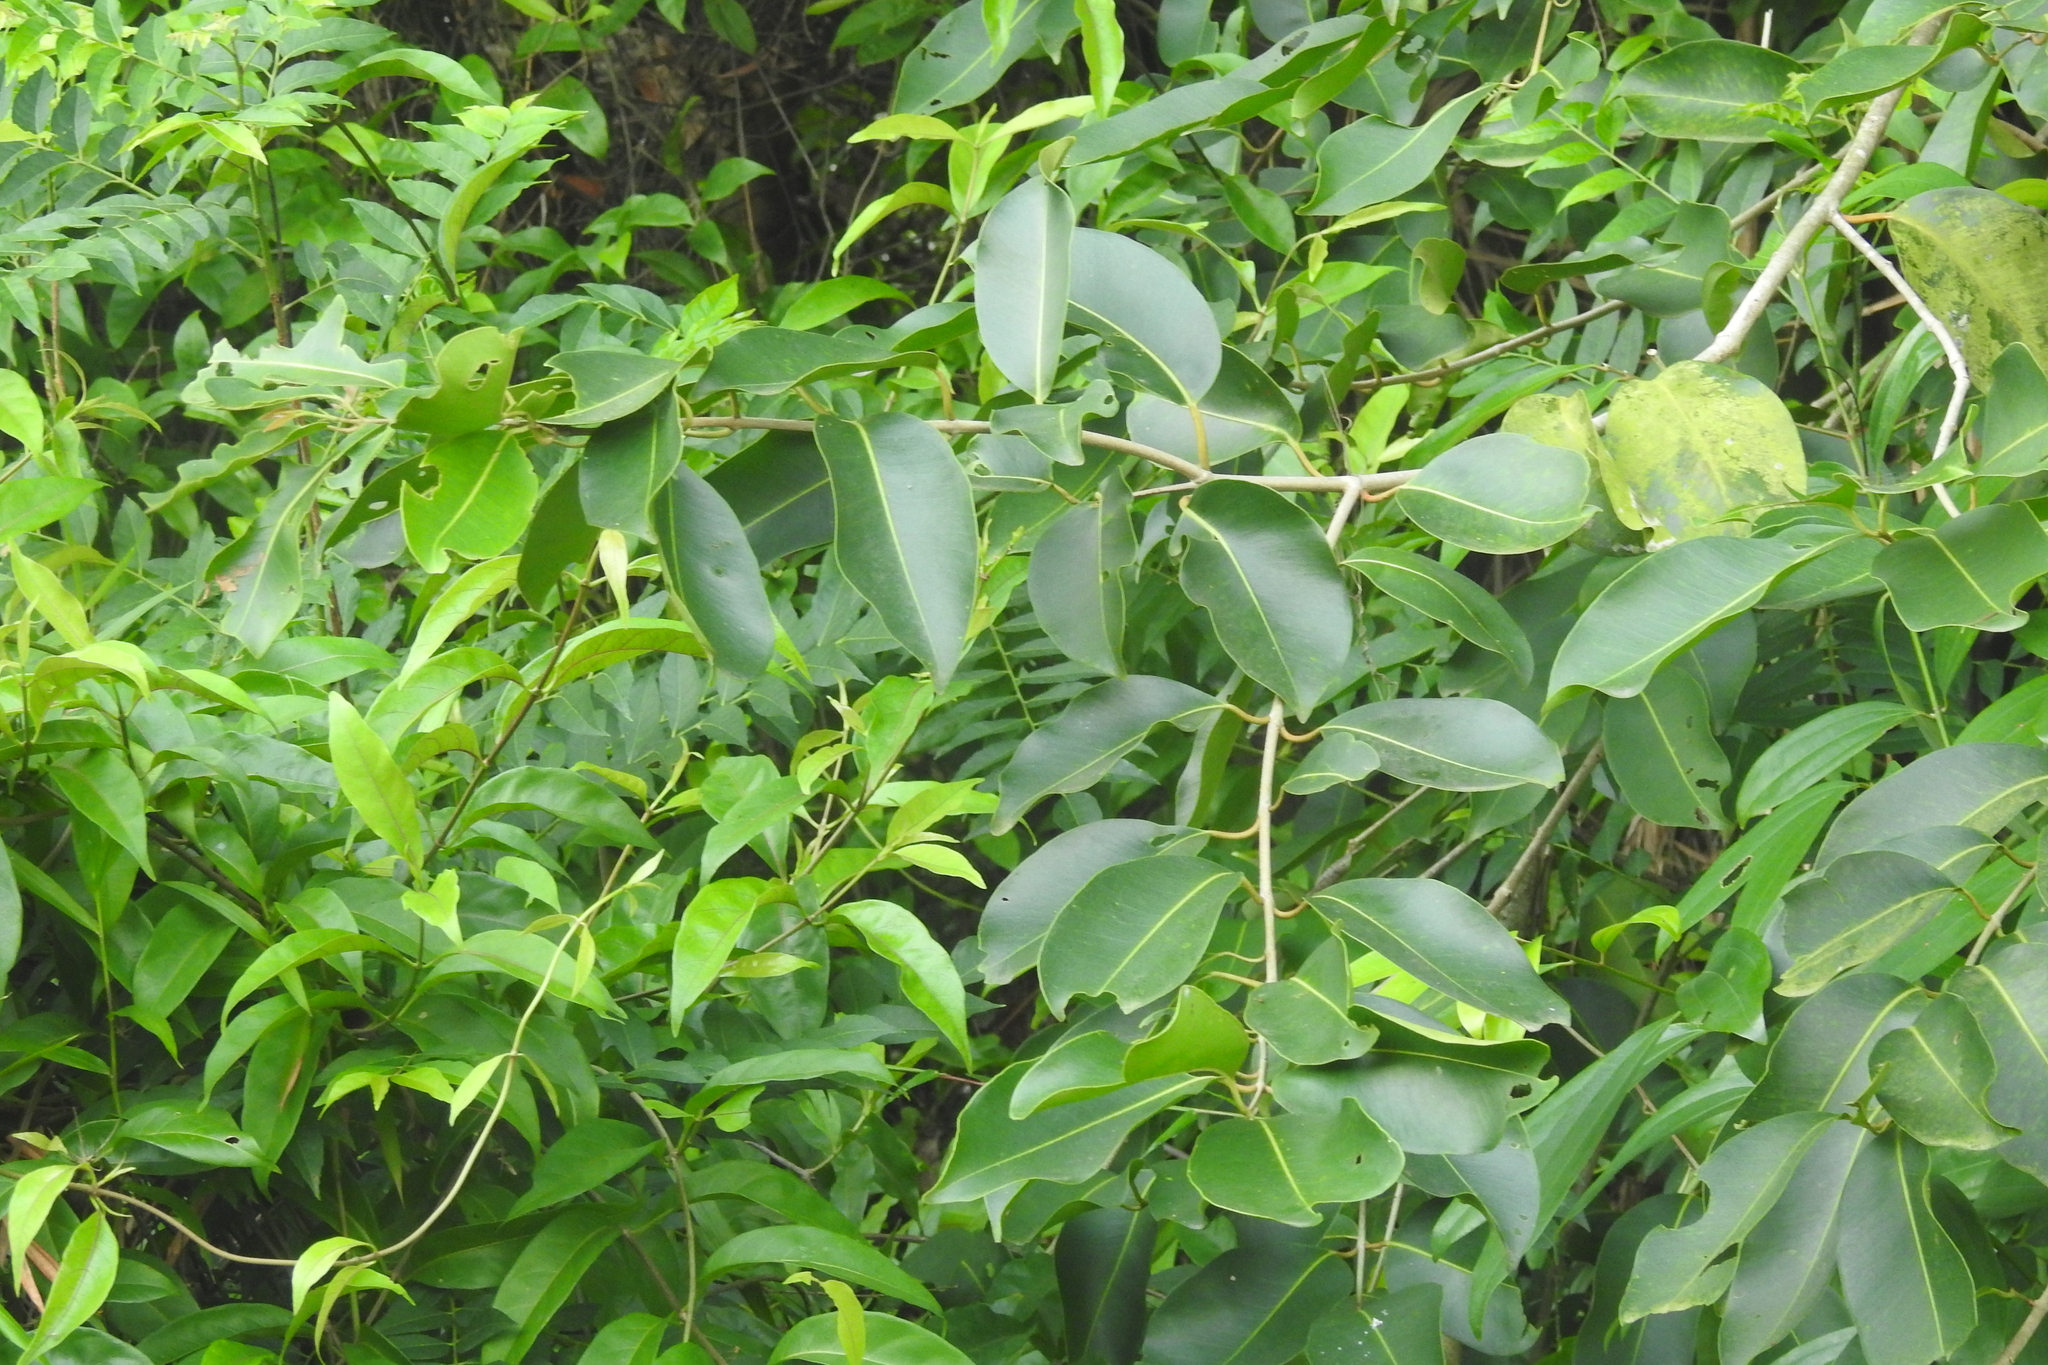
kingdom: Plantae
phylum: Tracheophyta
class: Magnoliopsida
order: Myrtales
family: Myrtaceae
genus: Syzygium
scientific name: Syzygium cumini
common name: Java plum
